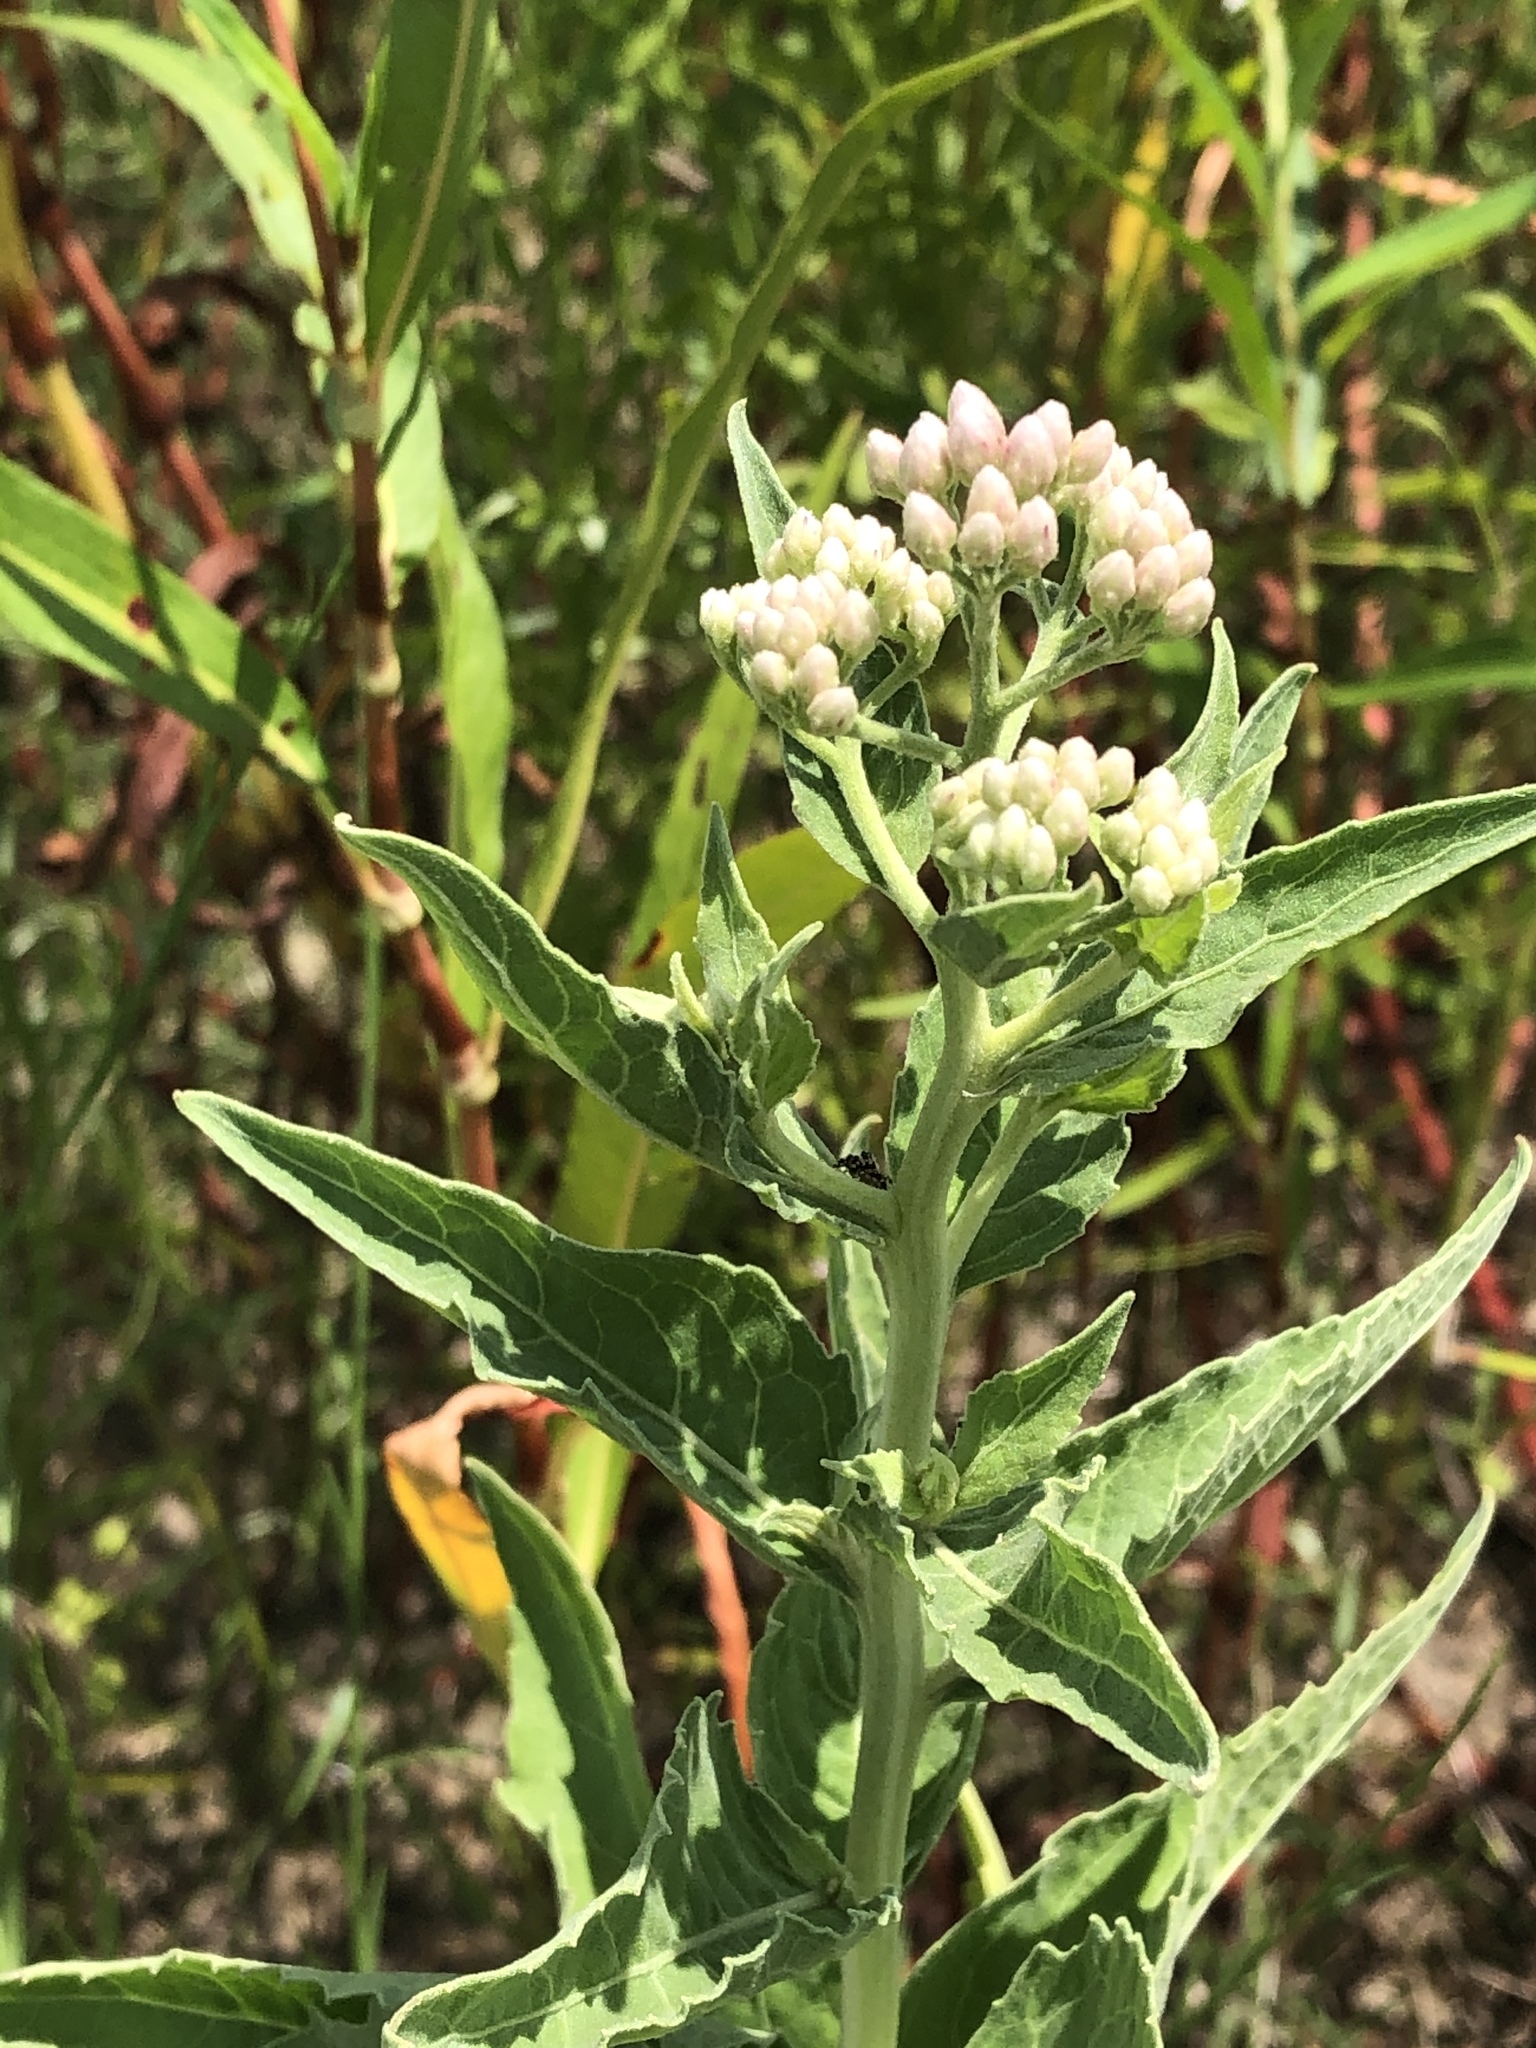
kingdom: Plantae
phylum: Tracheophyta
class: Magnoliopsida
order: Asterales
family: Asteraceae
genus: Pluchea
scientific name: Pluchea odorata
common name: Saltmarsh fleabane
